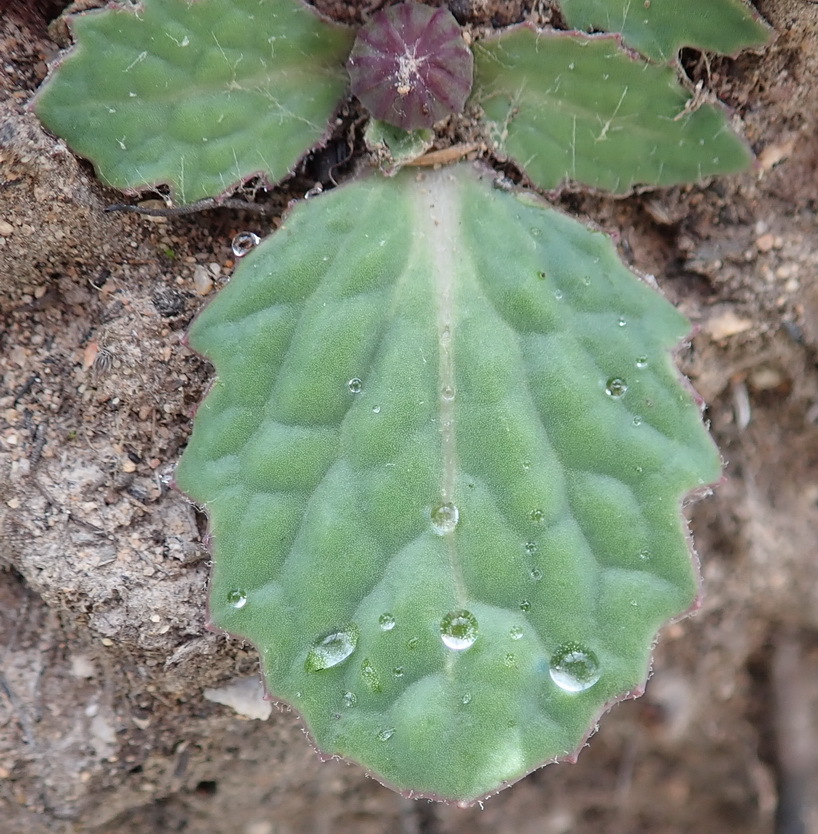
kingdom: Plantae
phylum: Tracheophyta
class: Magnoliopsida
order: Asterales
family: Asteraceae
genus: Othonna
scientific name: Othonna oleracea
